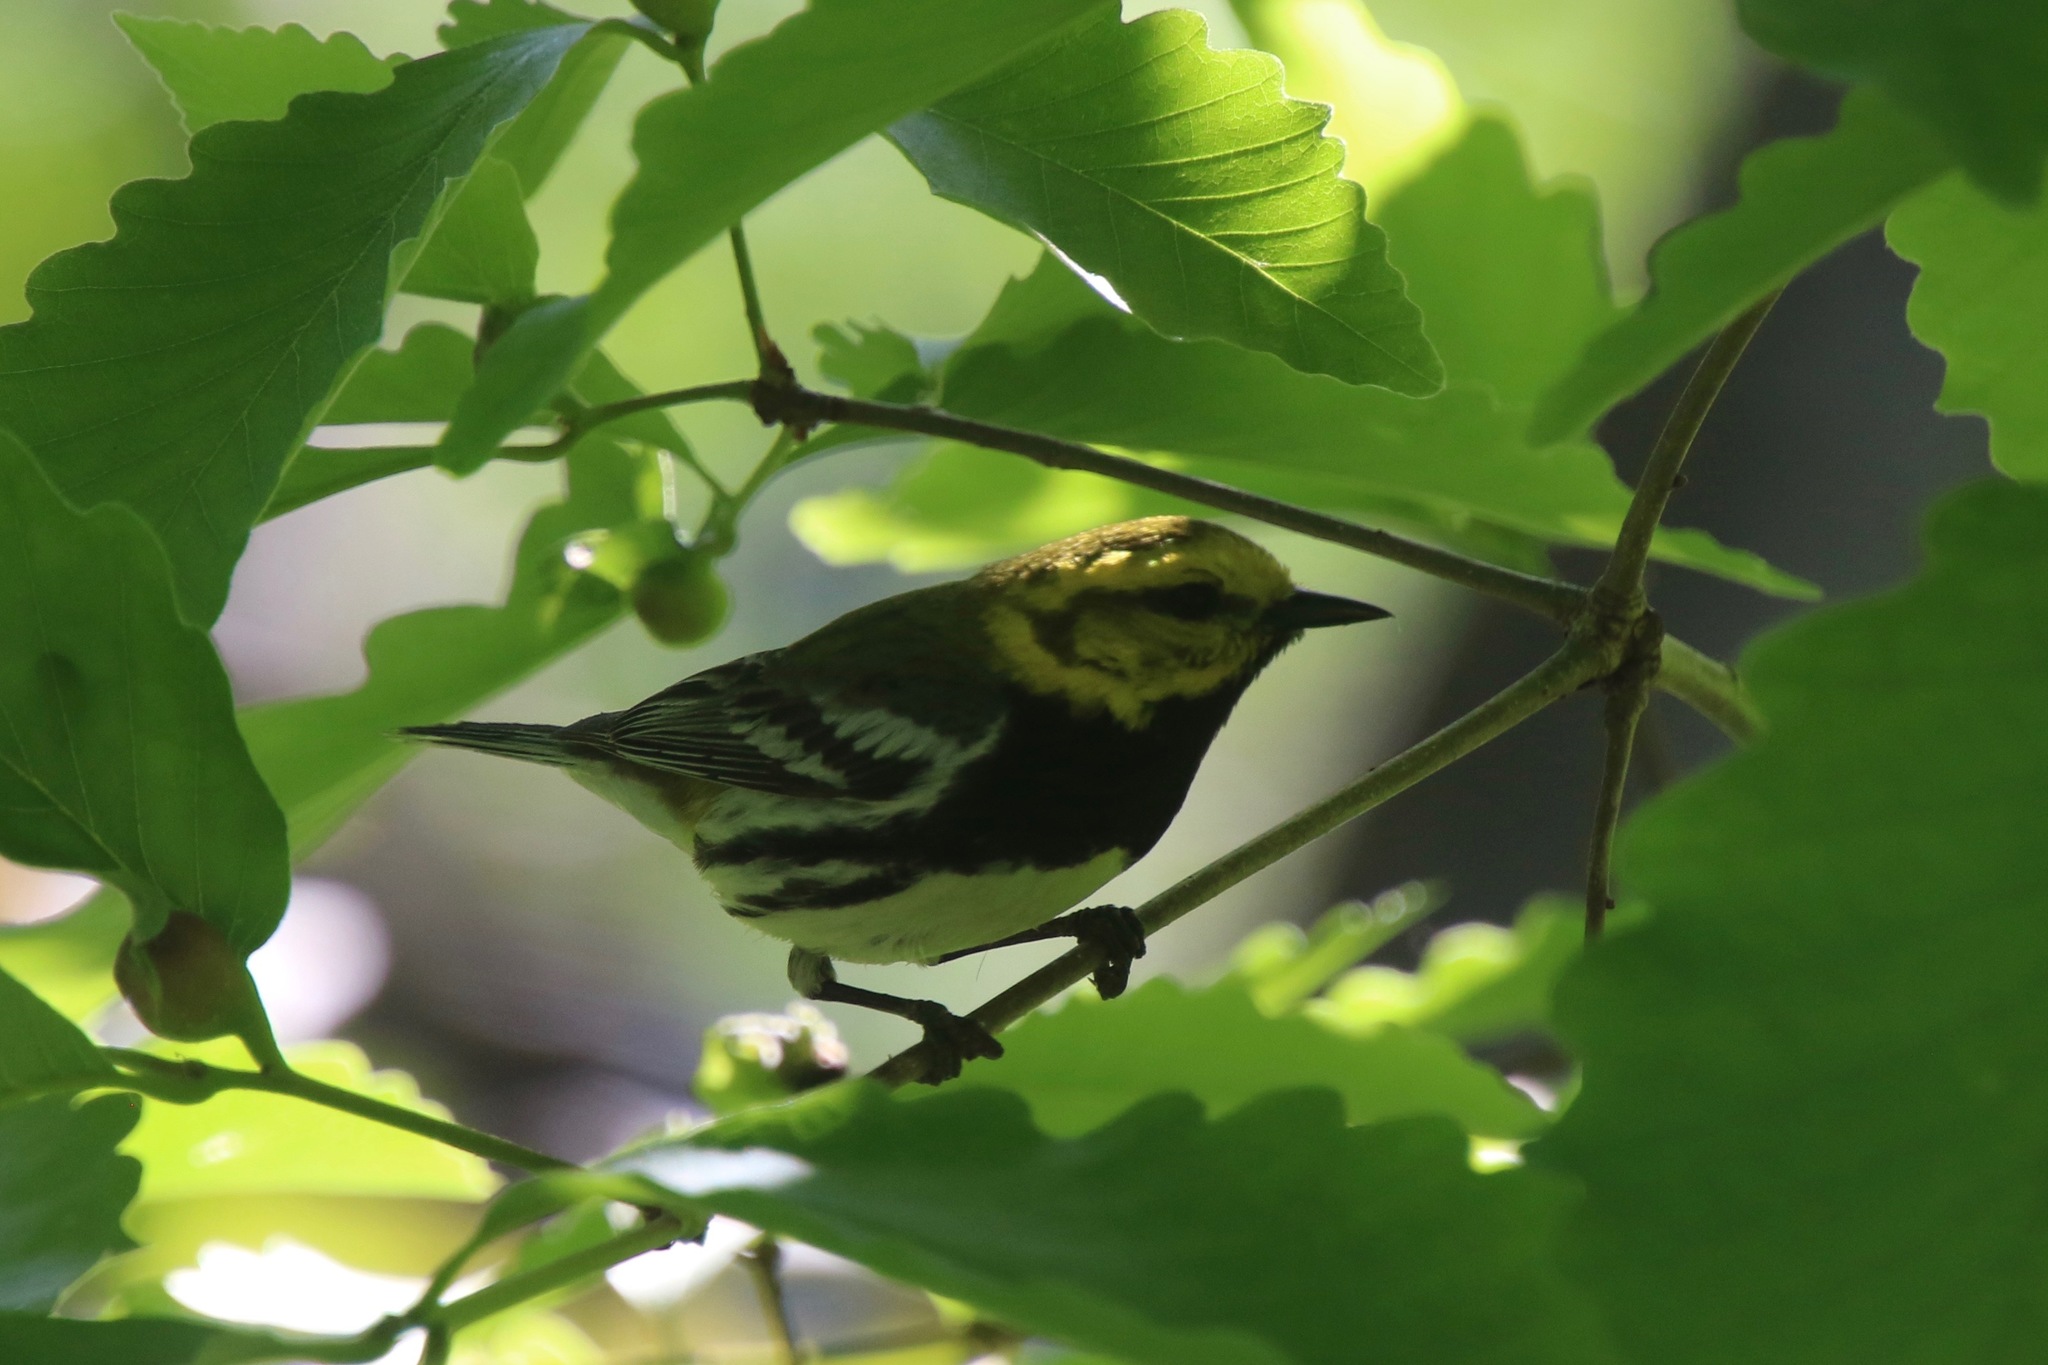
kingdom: Animalia
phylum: Chordata
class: Aves
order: Passeriformes
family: Parulidae
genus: Setophaga
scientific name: Setophaga virens
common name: Black-throated green warbler
